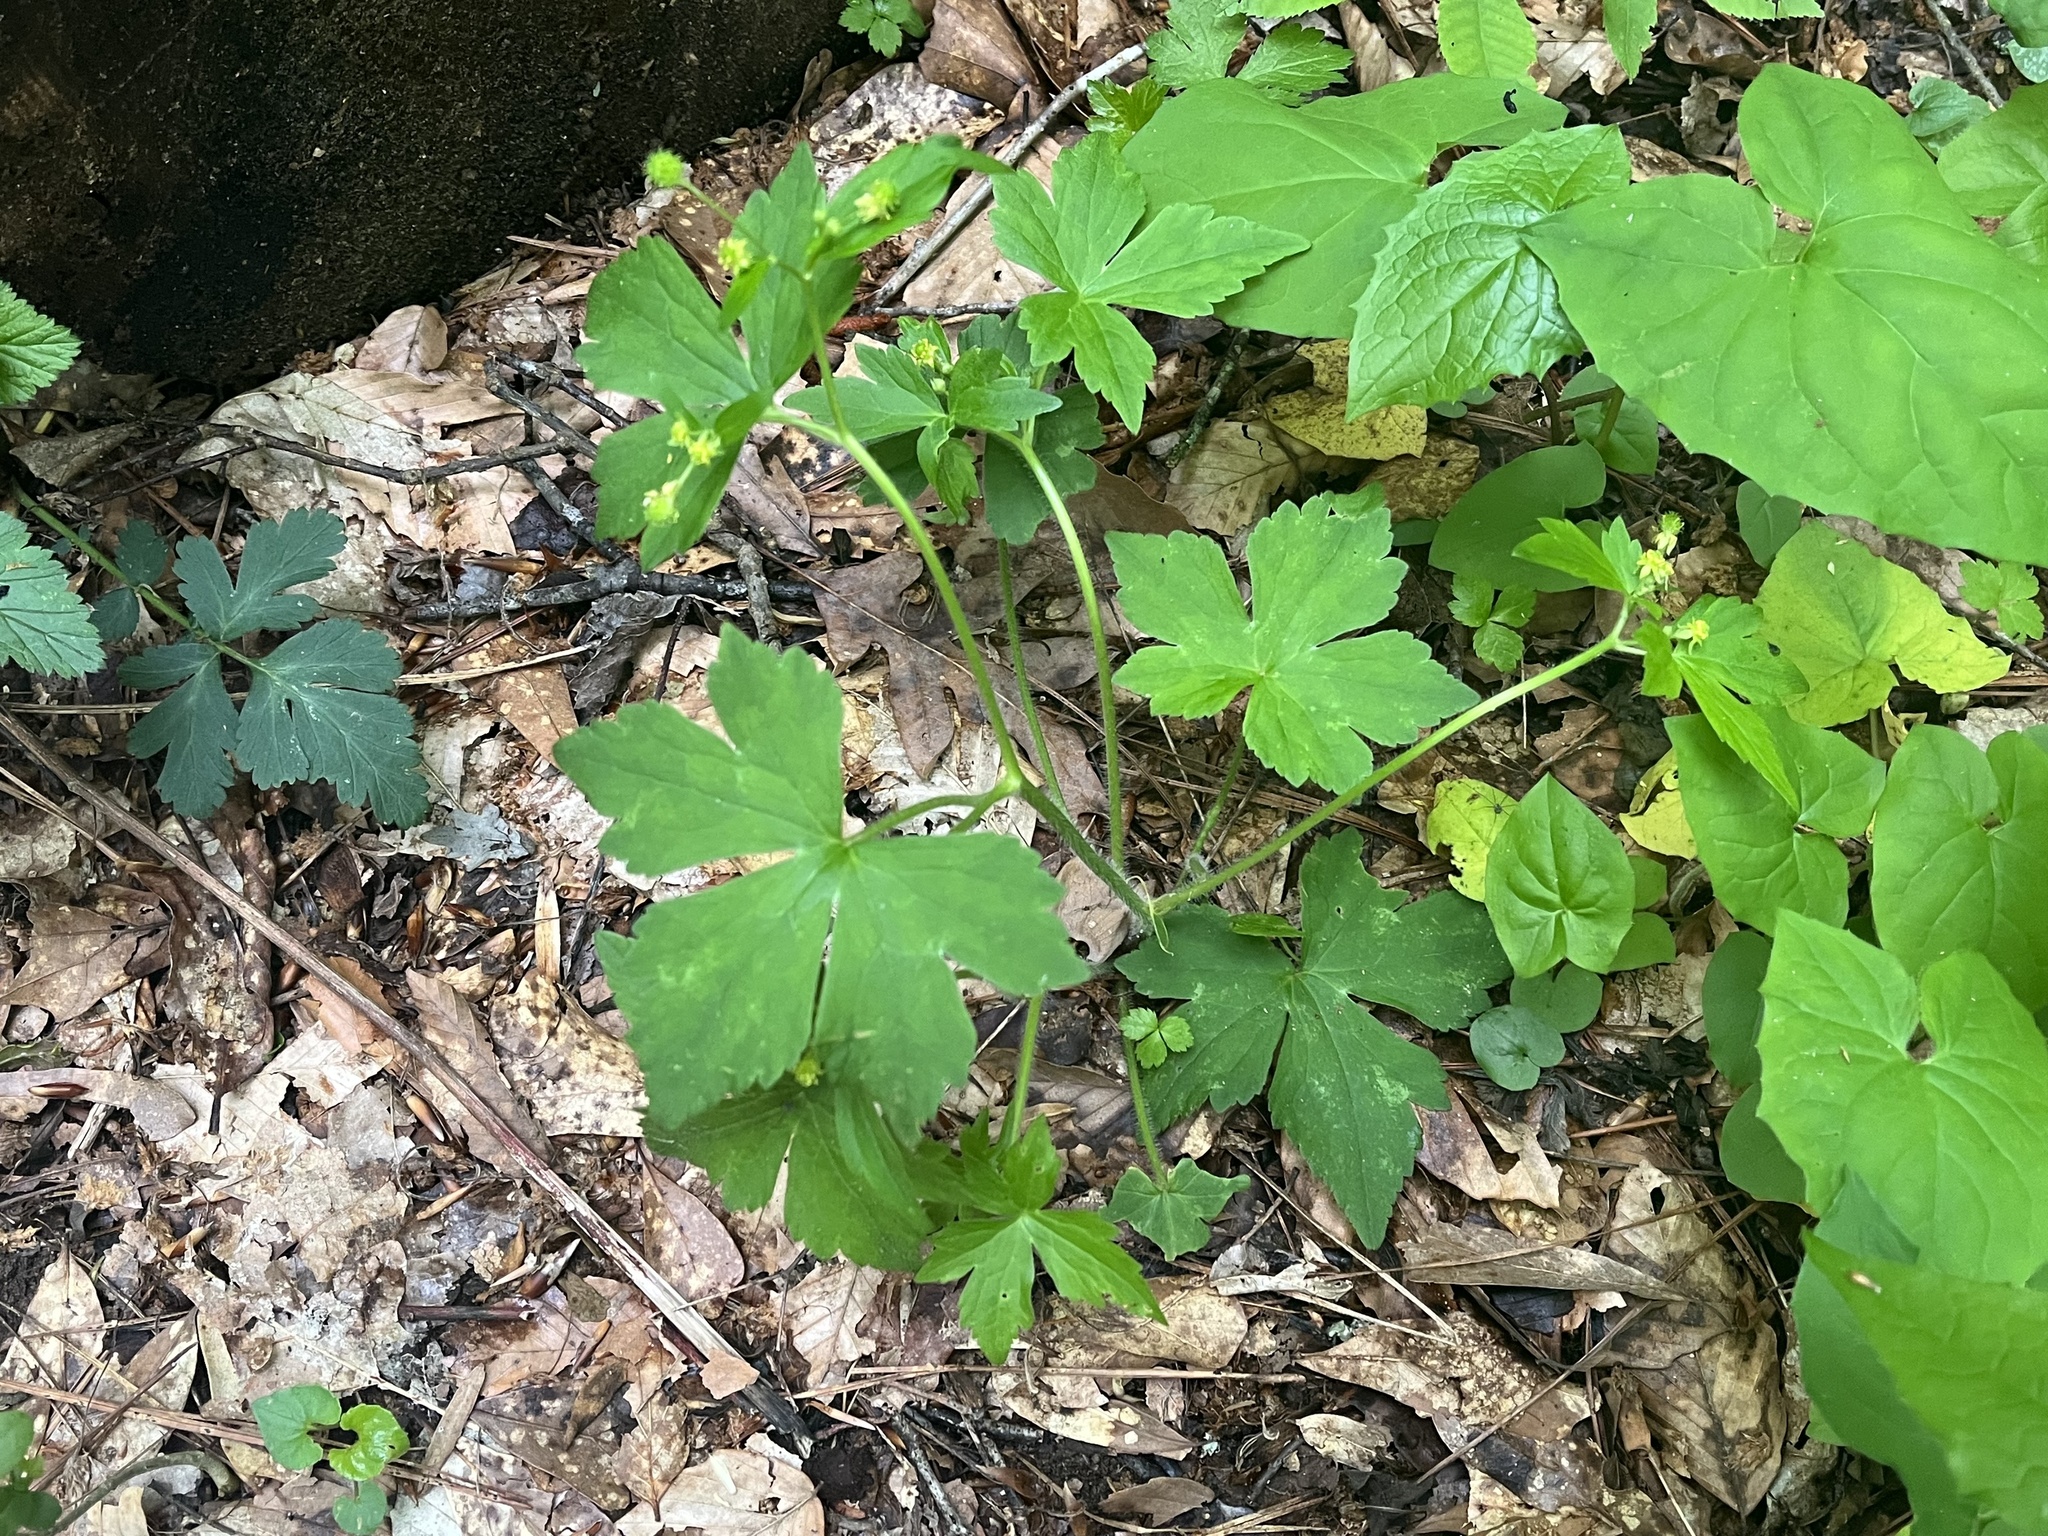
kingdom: Plantae
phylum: Tracheophyta
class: Magnoliopsida
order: Ranunculales
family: Ranunculaceae
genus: Ranunculus
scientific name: Ranunculus recurvatus
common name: Blisterwort
